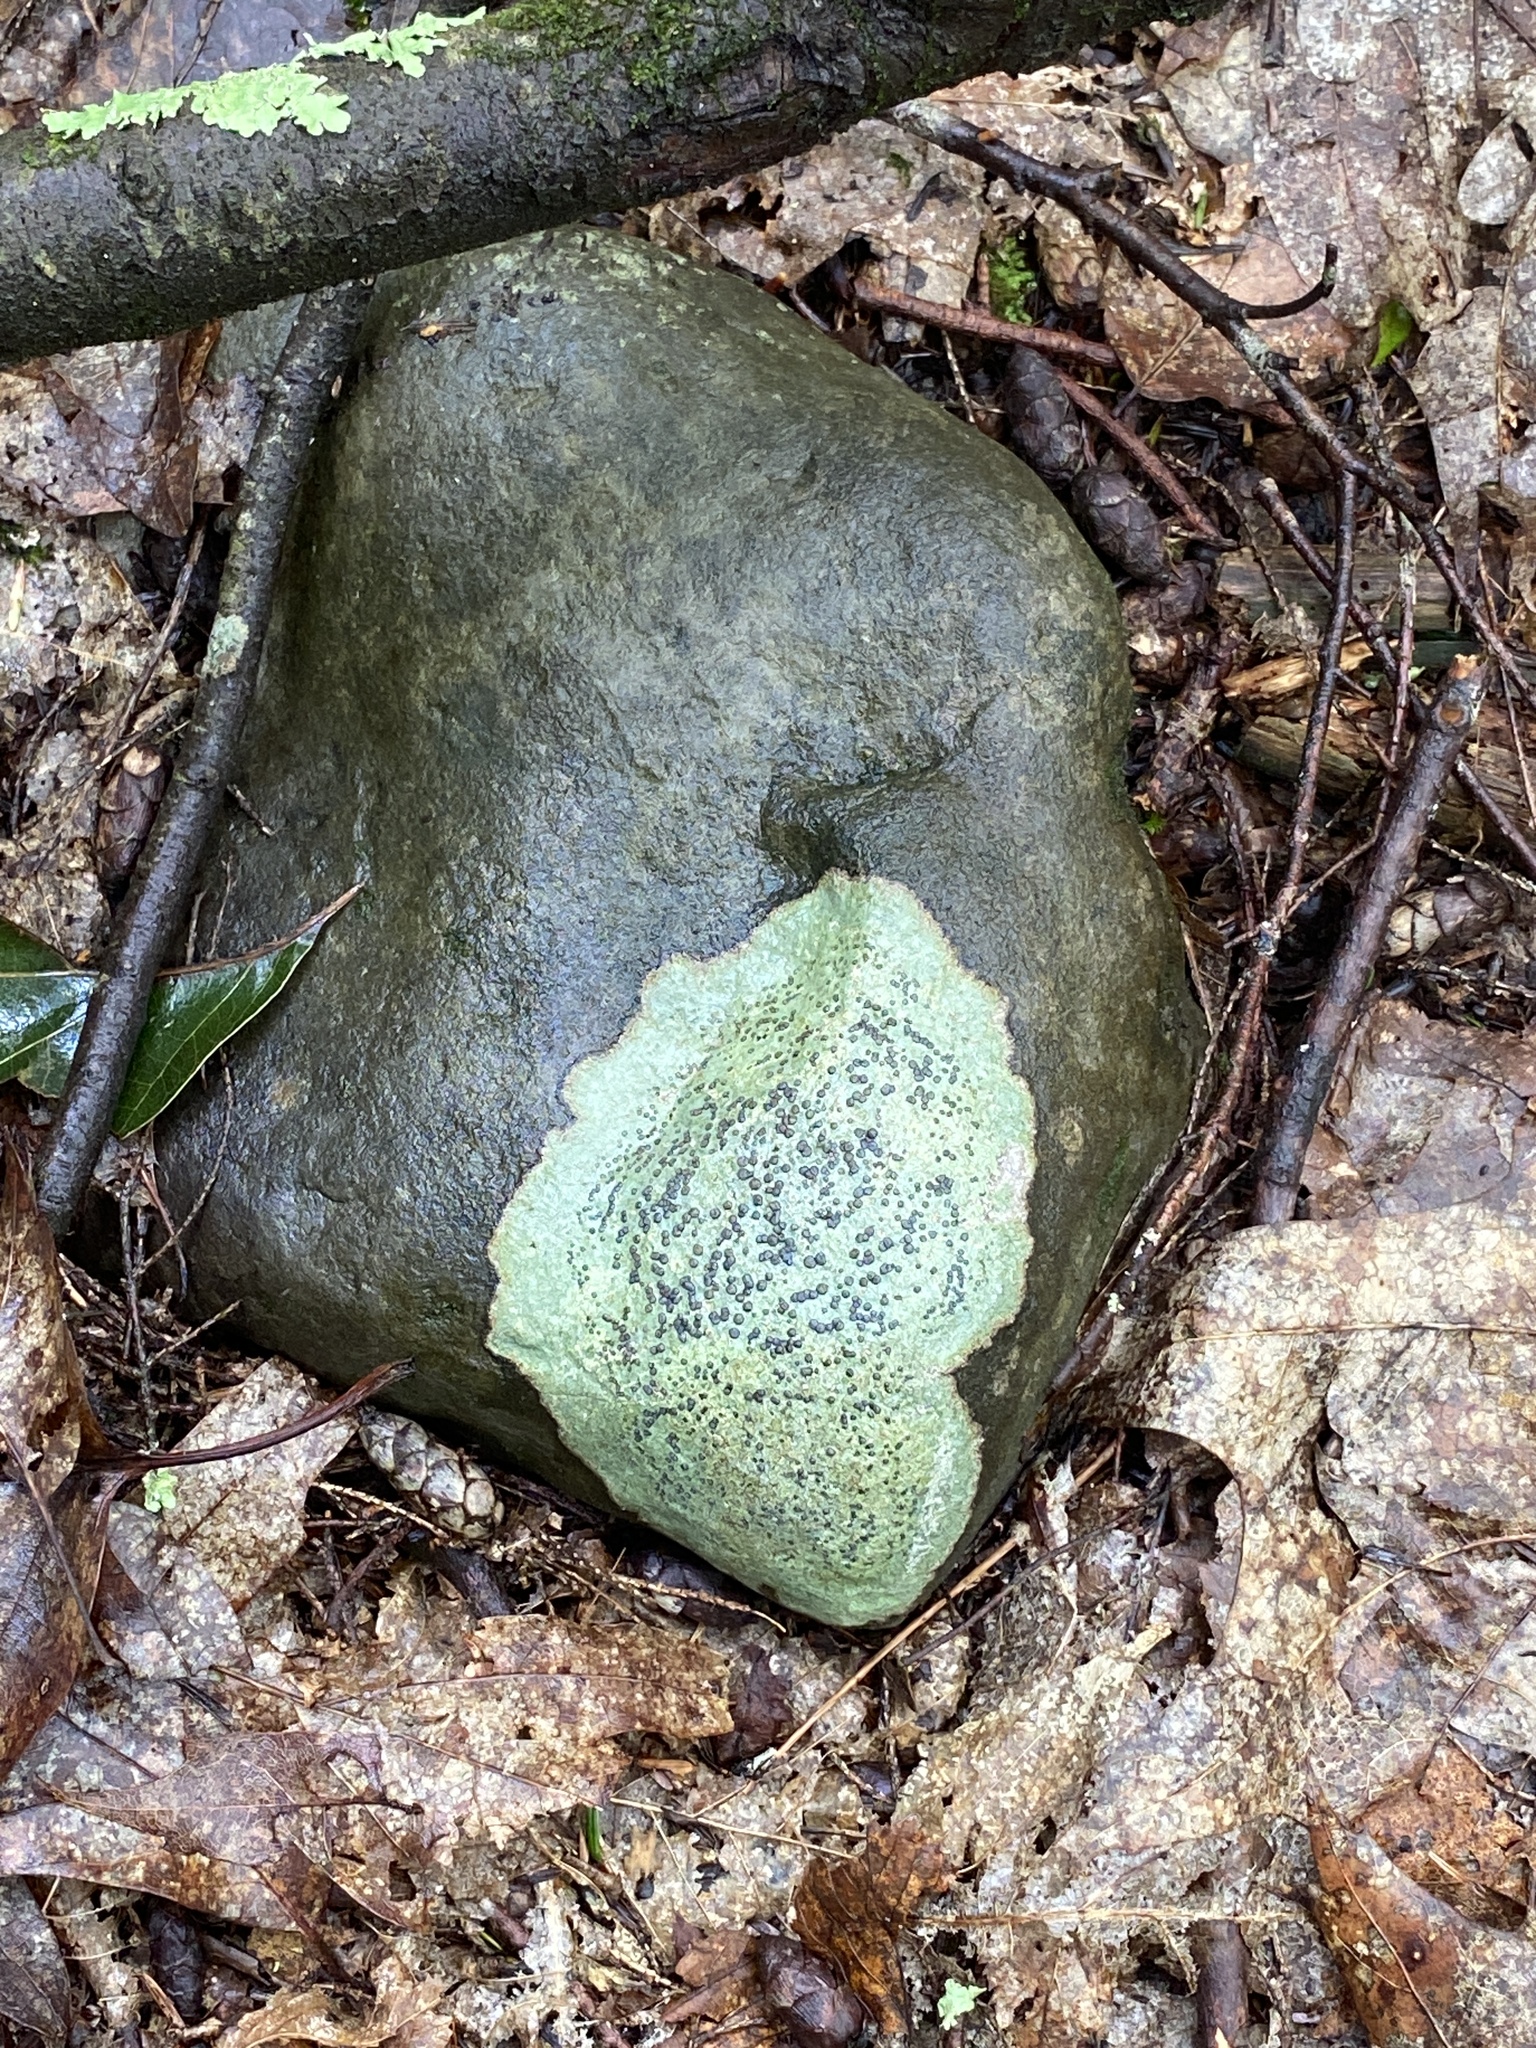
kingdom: Fungi
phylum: Ascomycota
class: Lecanoromycetes
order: Lecideales
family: Lecideaceae
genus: Porpidia
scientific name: Porpidia albocaerulescens
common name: Smokey-eyed boulder lichen
